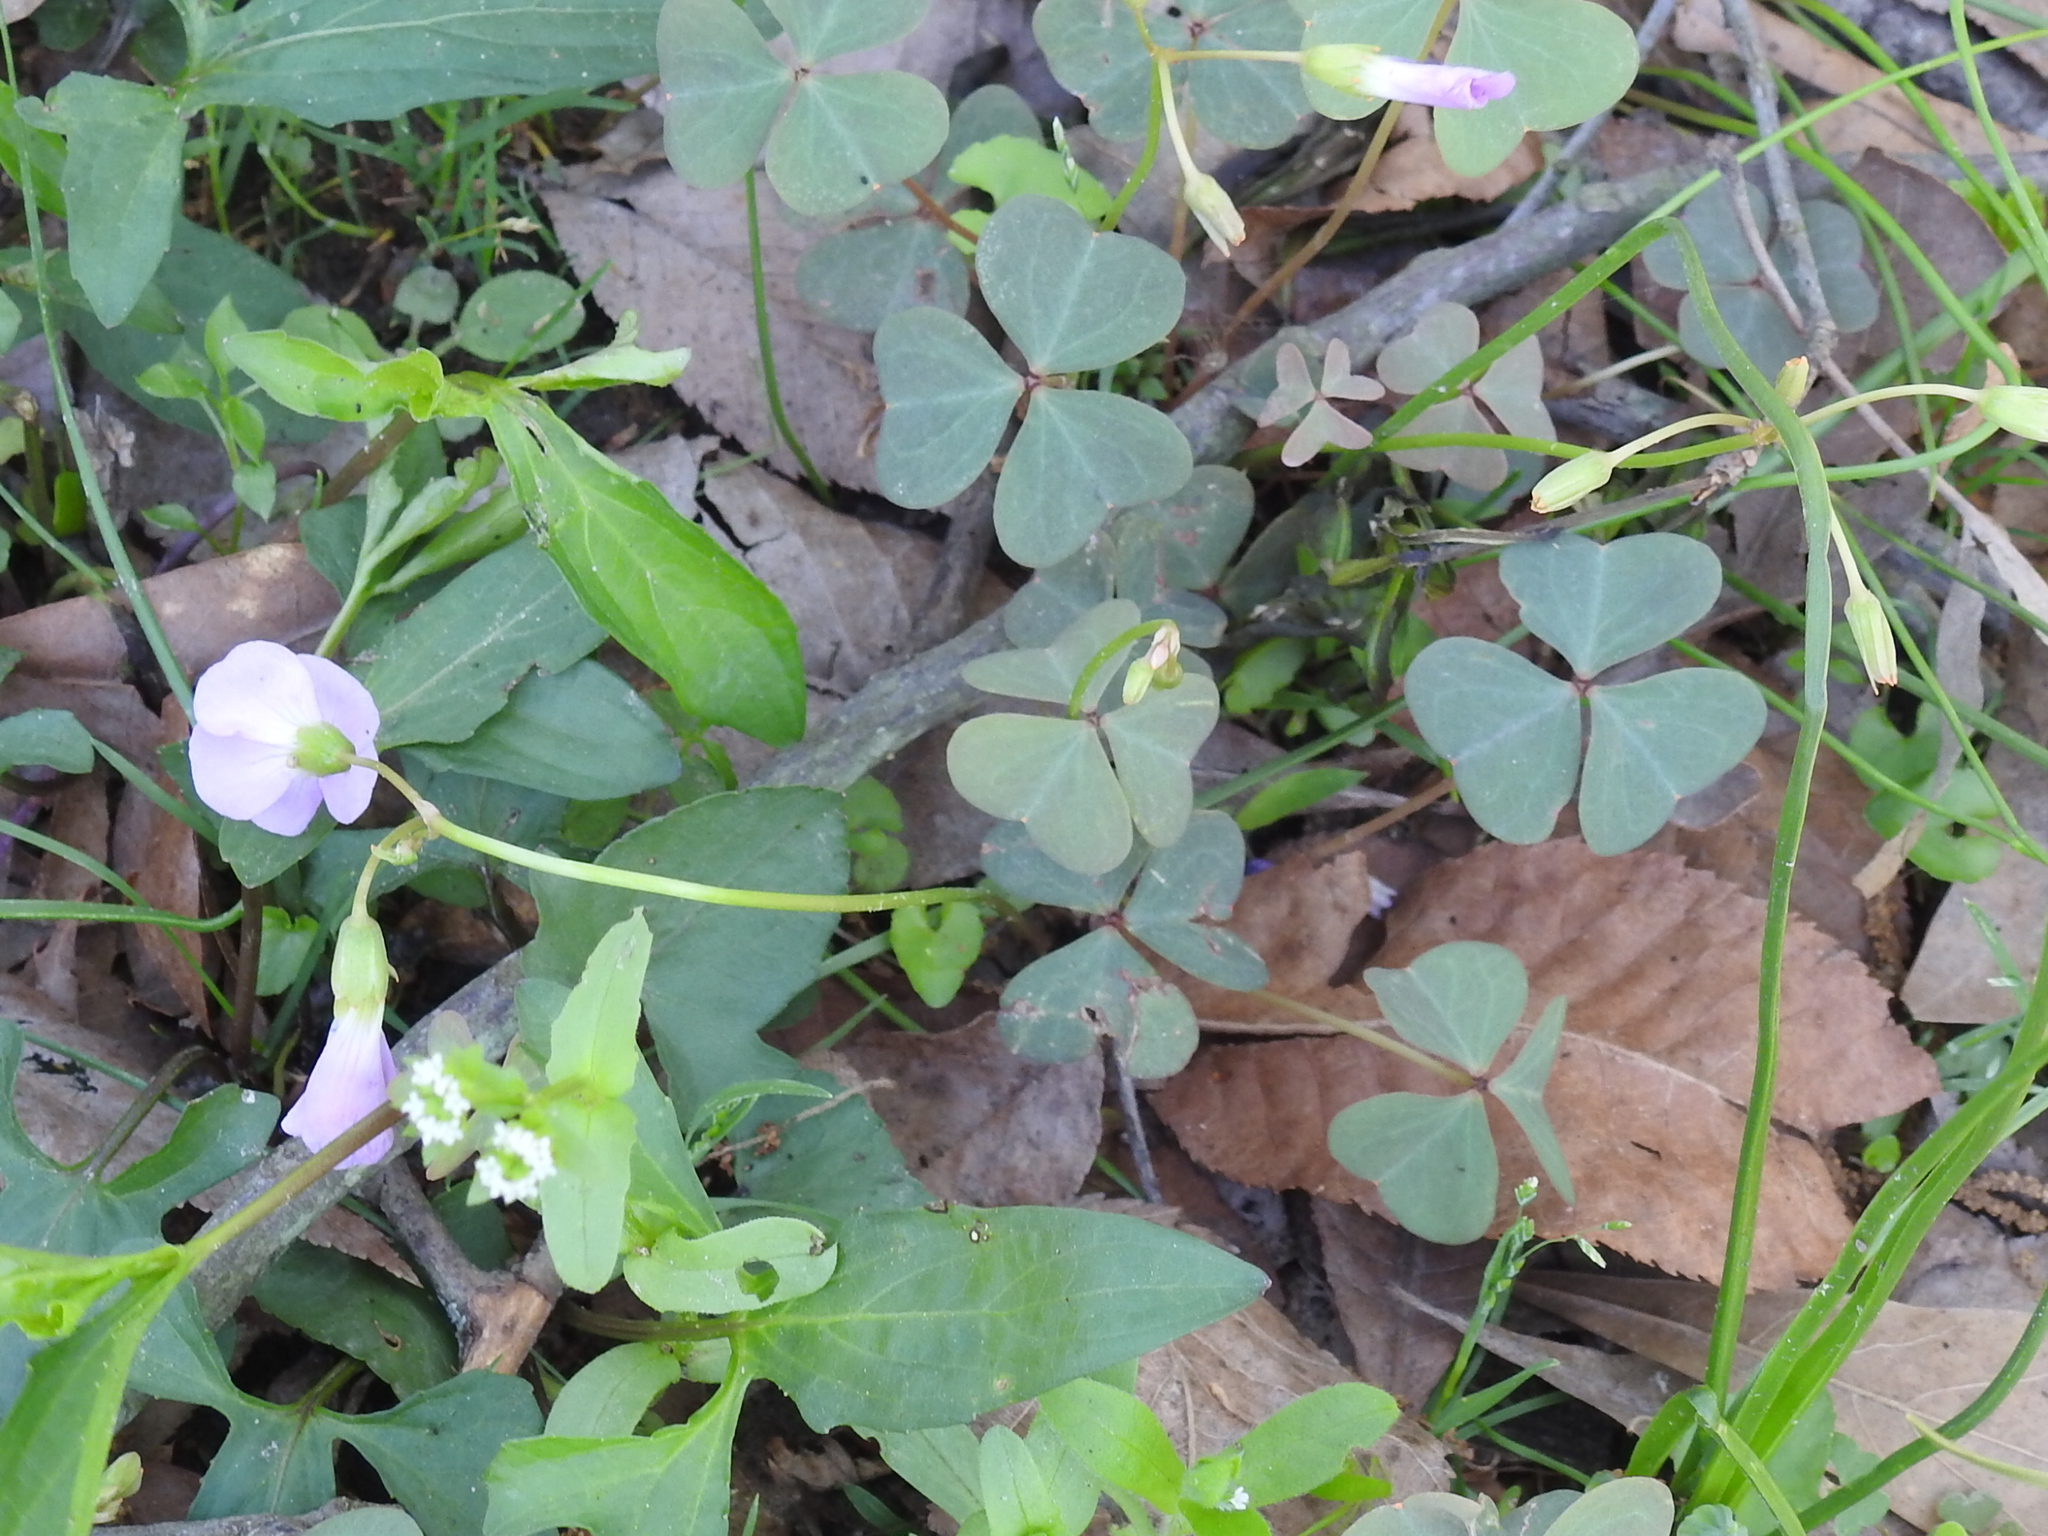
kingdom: Plantae
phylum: Tracheophyta
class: Magnoliopsida
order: Oxalidales
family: Oxalidaceae
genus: Oxalis
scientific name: Oxalis violacea
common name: Violet wood-sorrel
